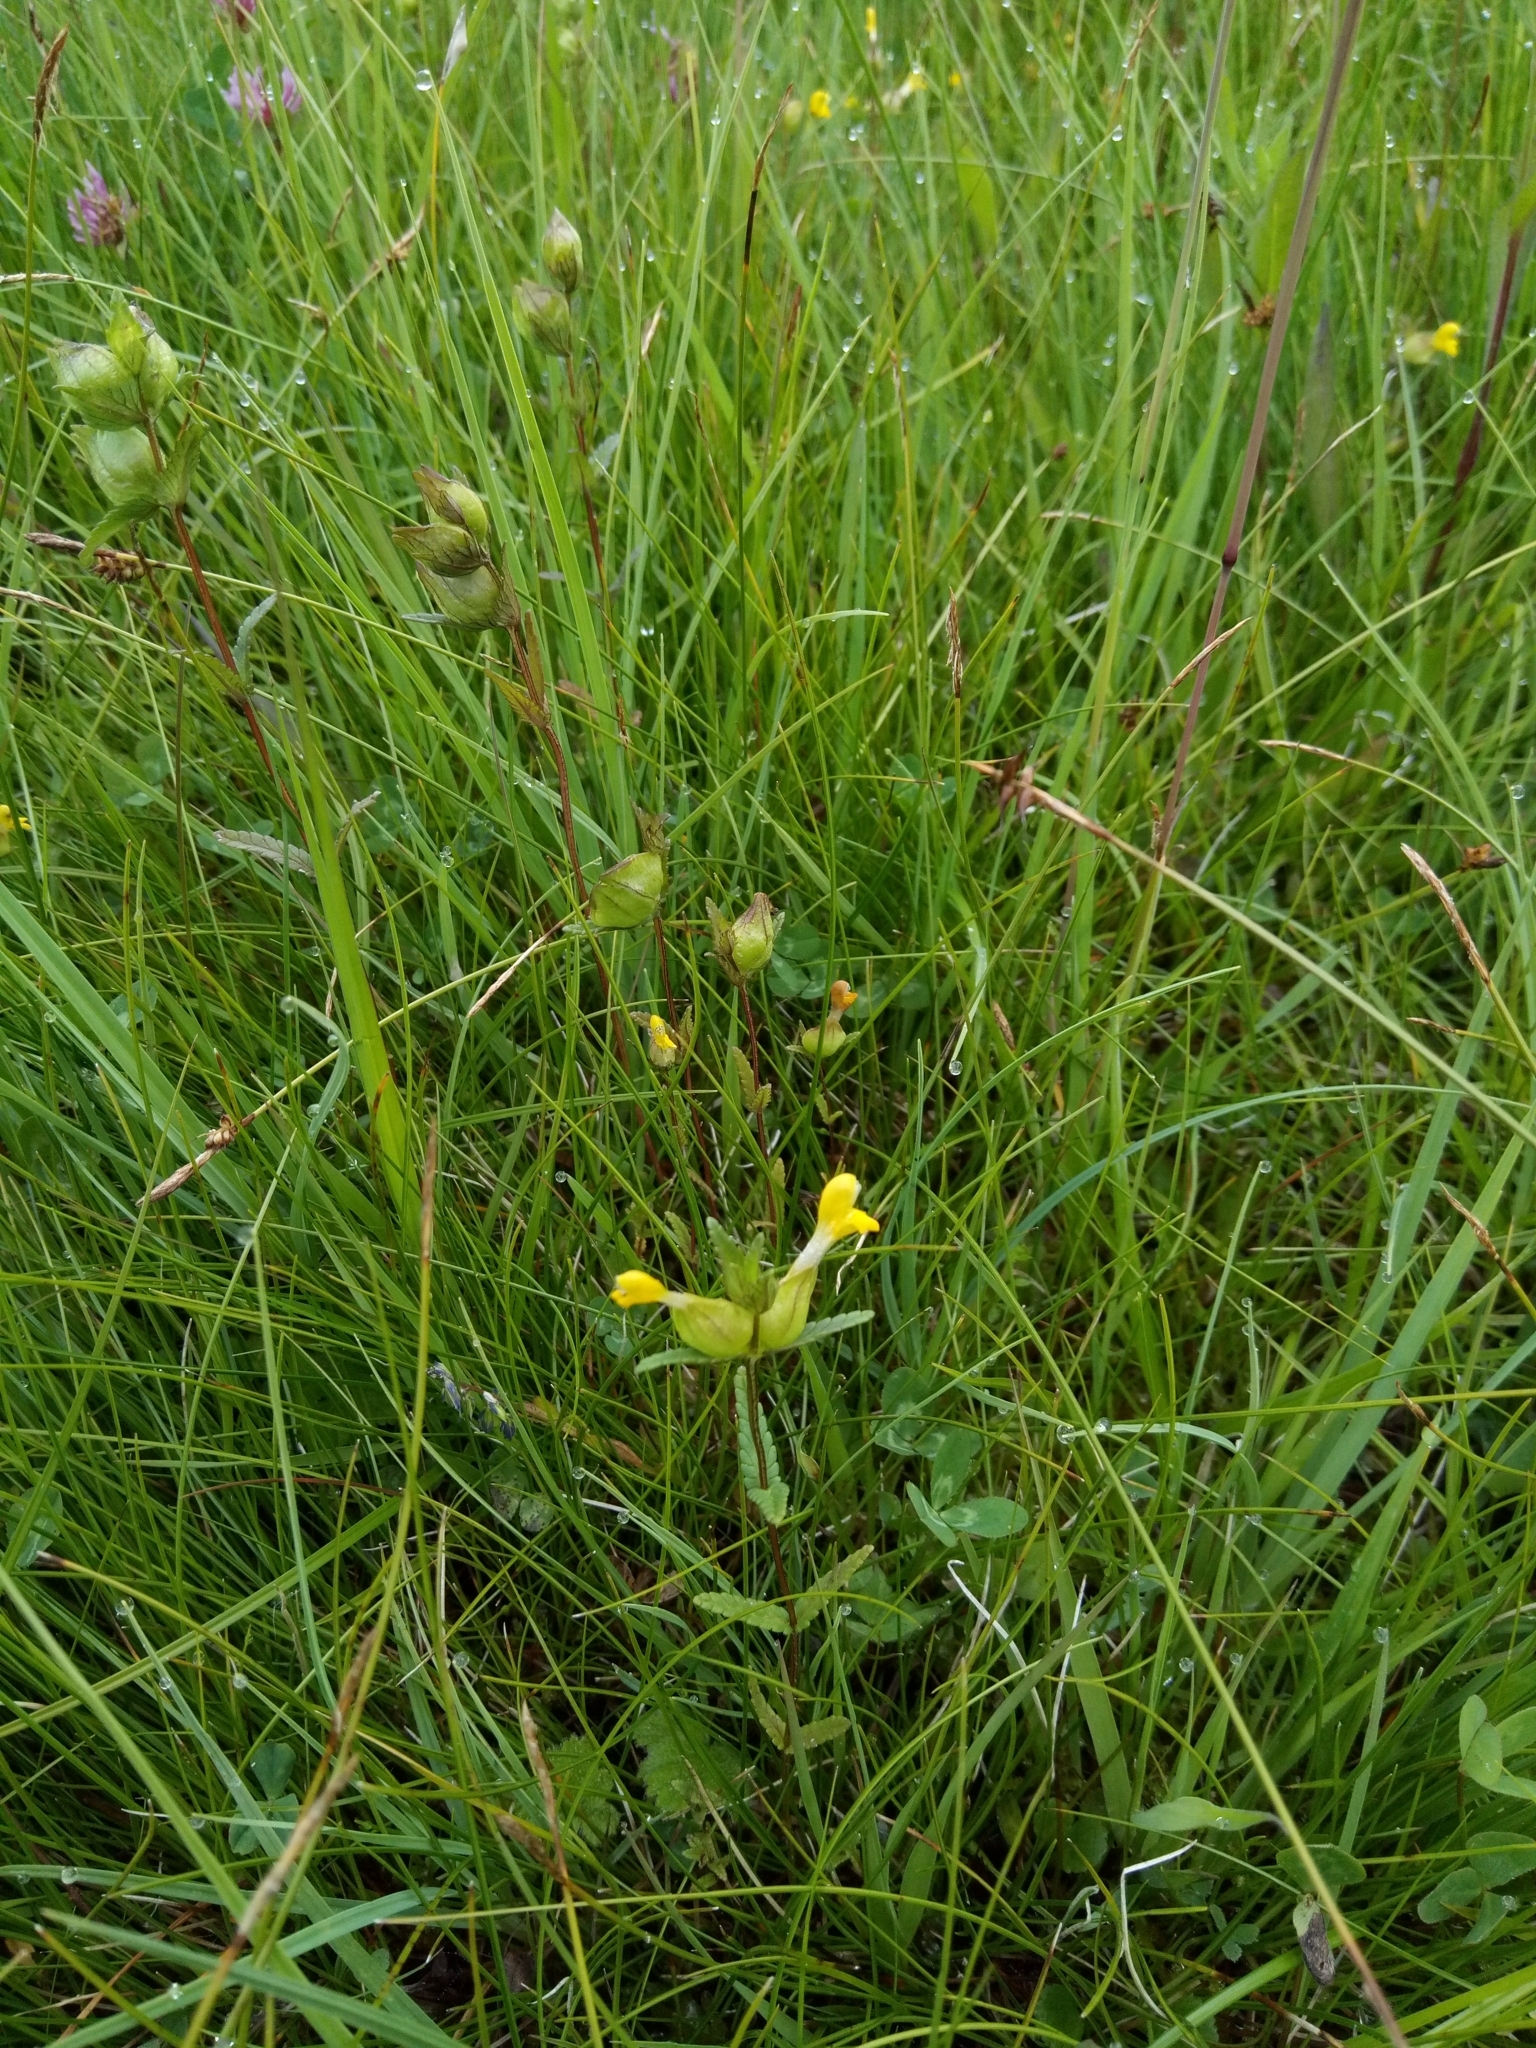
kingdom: Plantae
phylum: Tracheophyta
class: Magnoliopsida
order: Lamiales
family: Orobanchaceae
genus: Rhinanthus
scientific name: Rhinanthus minor
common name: Yellow-rattle
